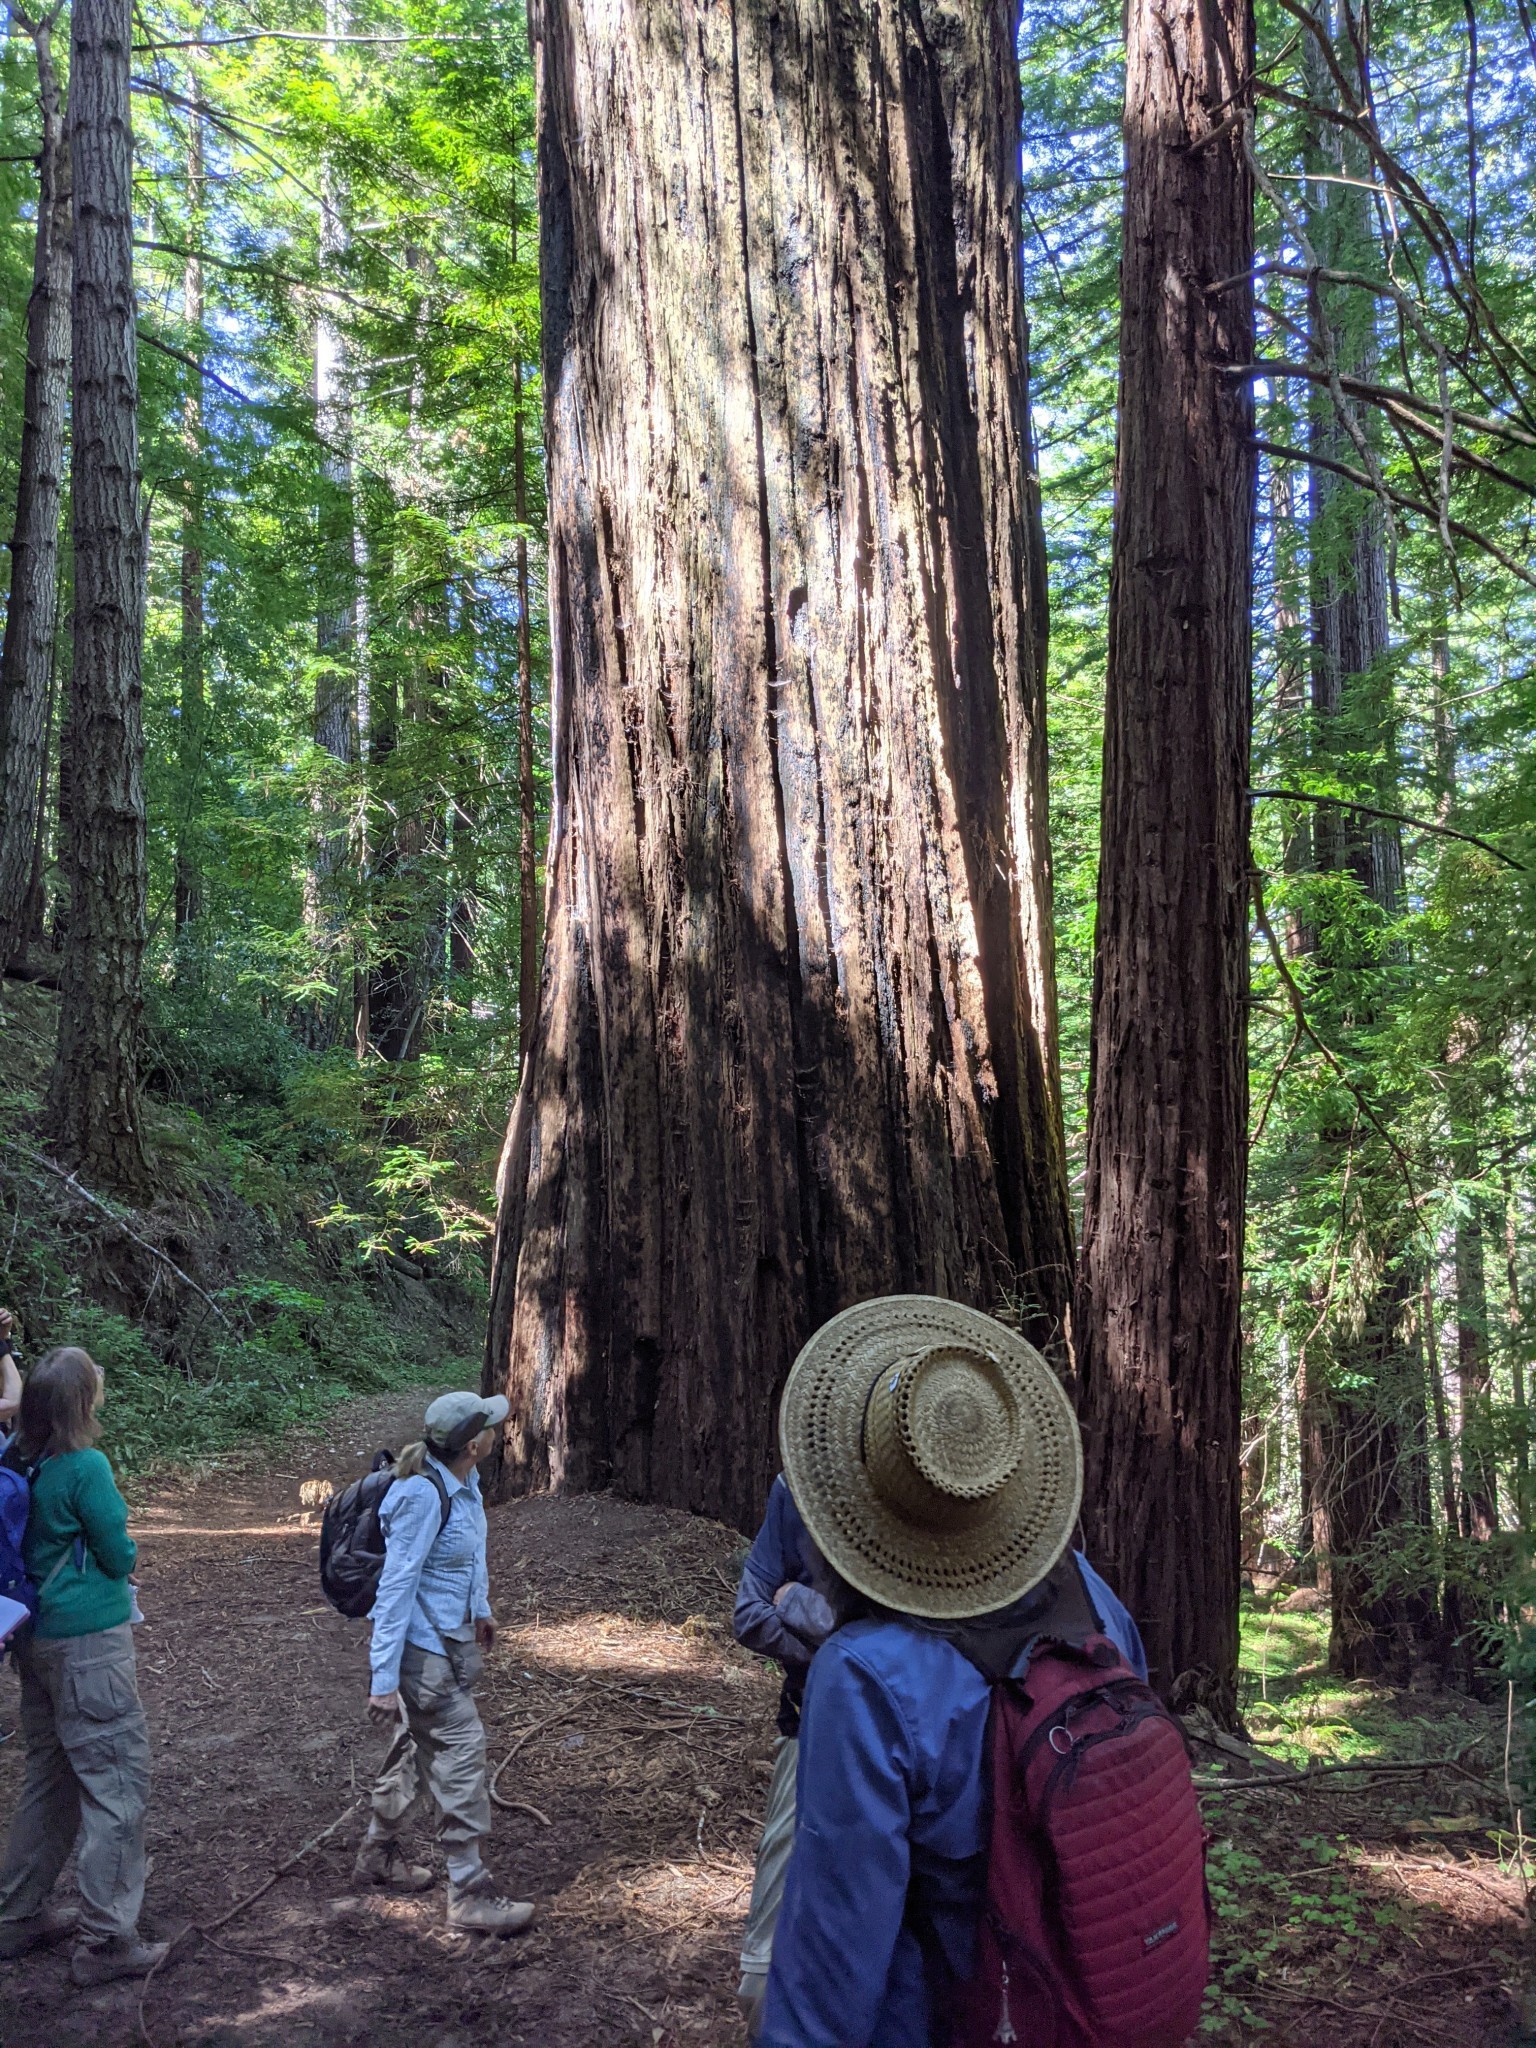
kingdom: Plantae
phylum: Tracheophyta
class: Pinopsida
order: Pinales
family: Cupressaceae
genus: Sequoia
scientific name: Sequoia sempervirens
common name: Coast redwood
